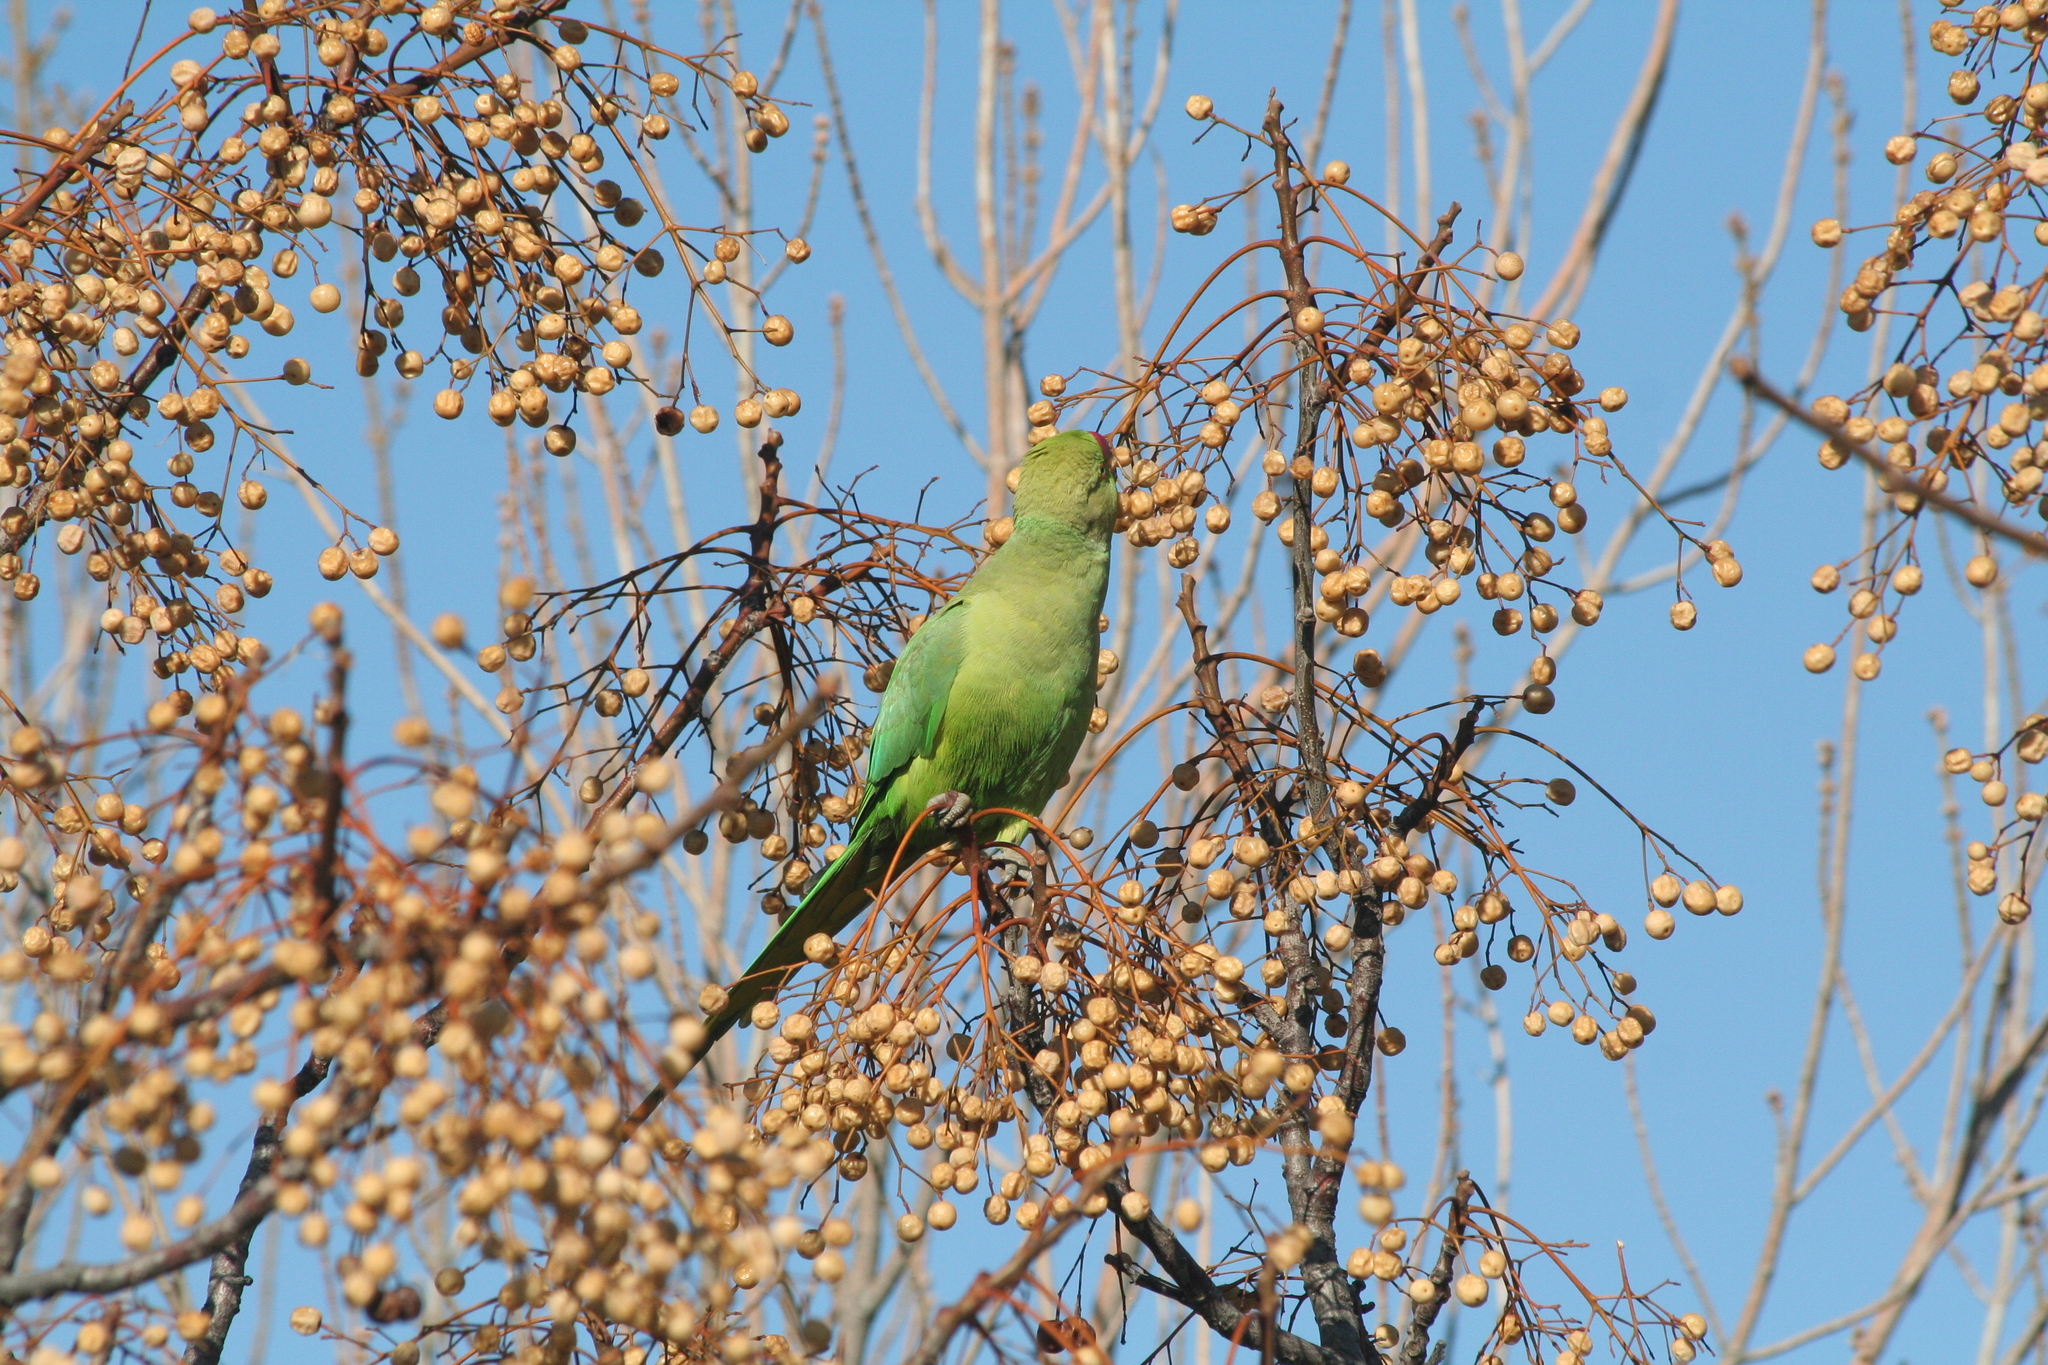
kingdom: Animalia
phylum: Chordata
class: Aves
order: Psittaciformes
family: Psittacidae
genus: Psittacula
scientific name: Psittacula krameri
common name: Rose-ringed parakeet
